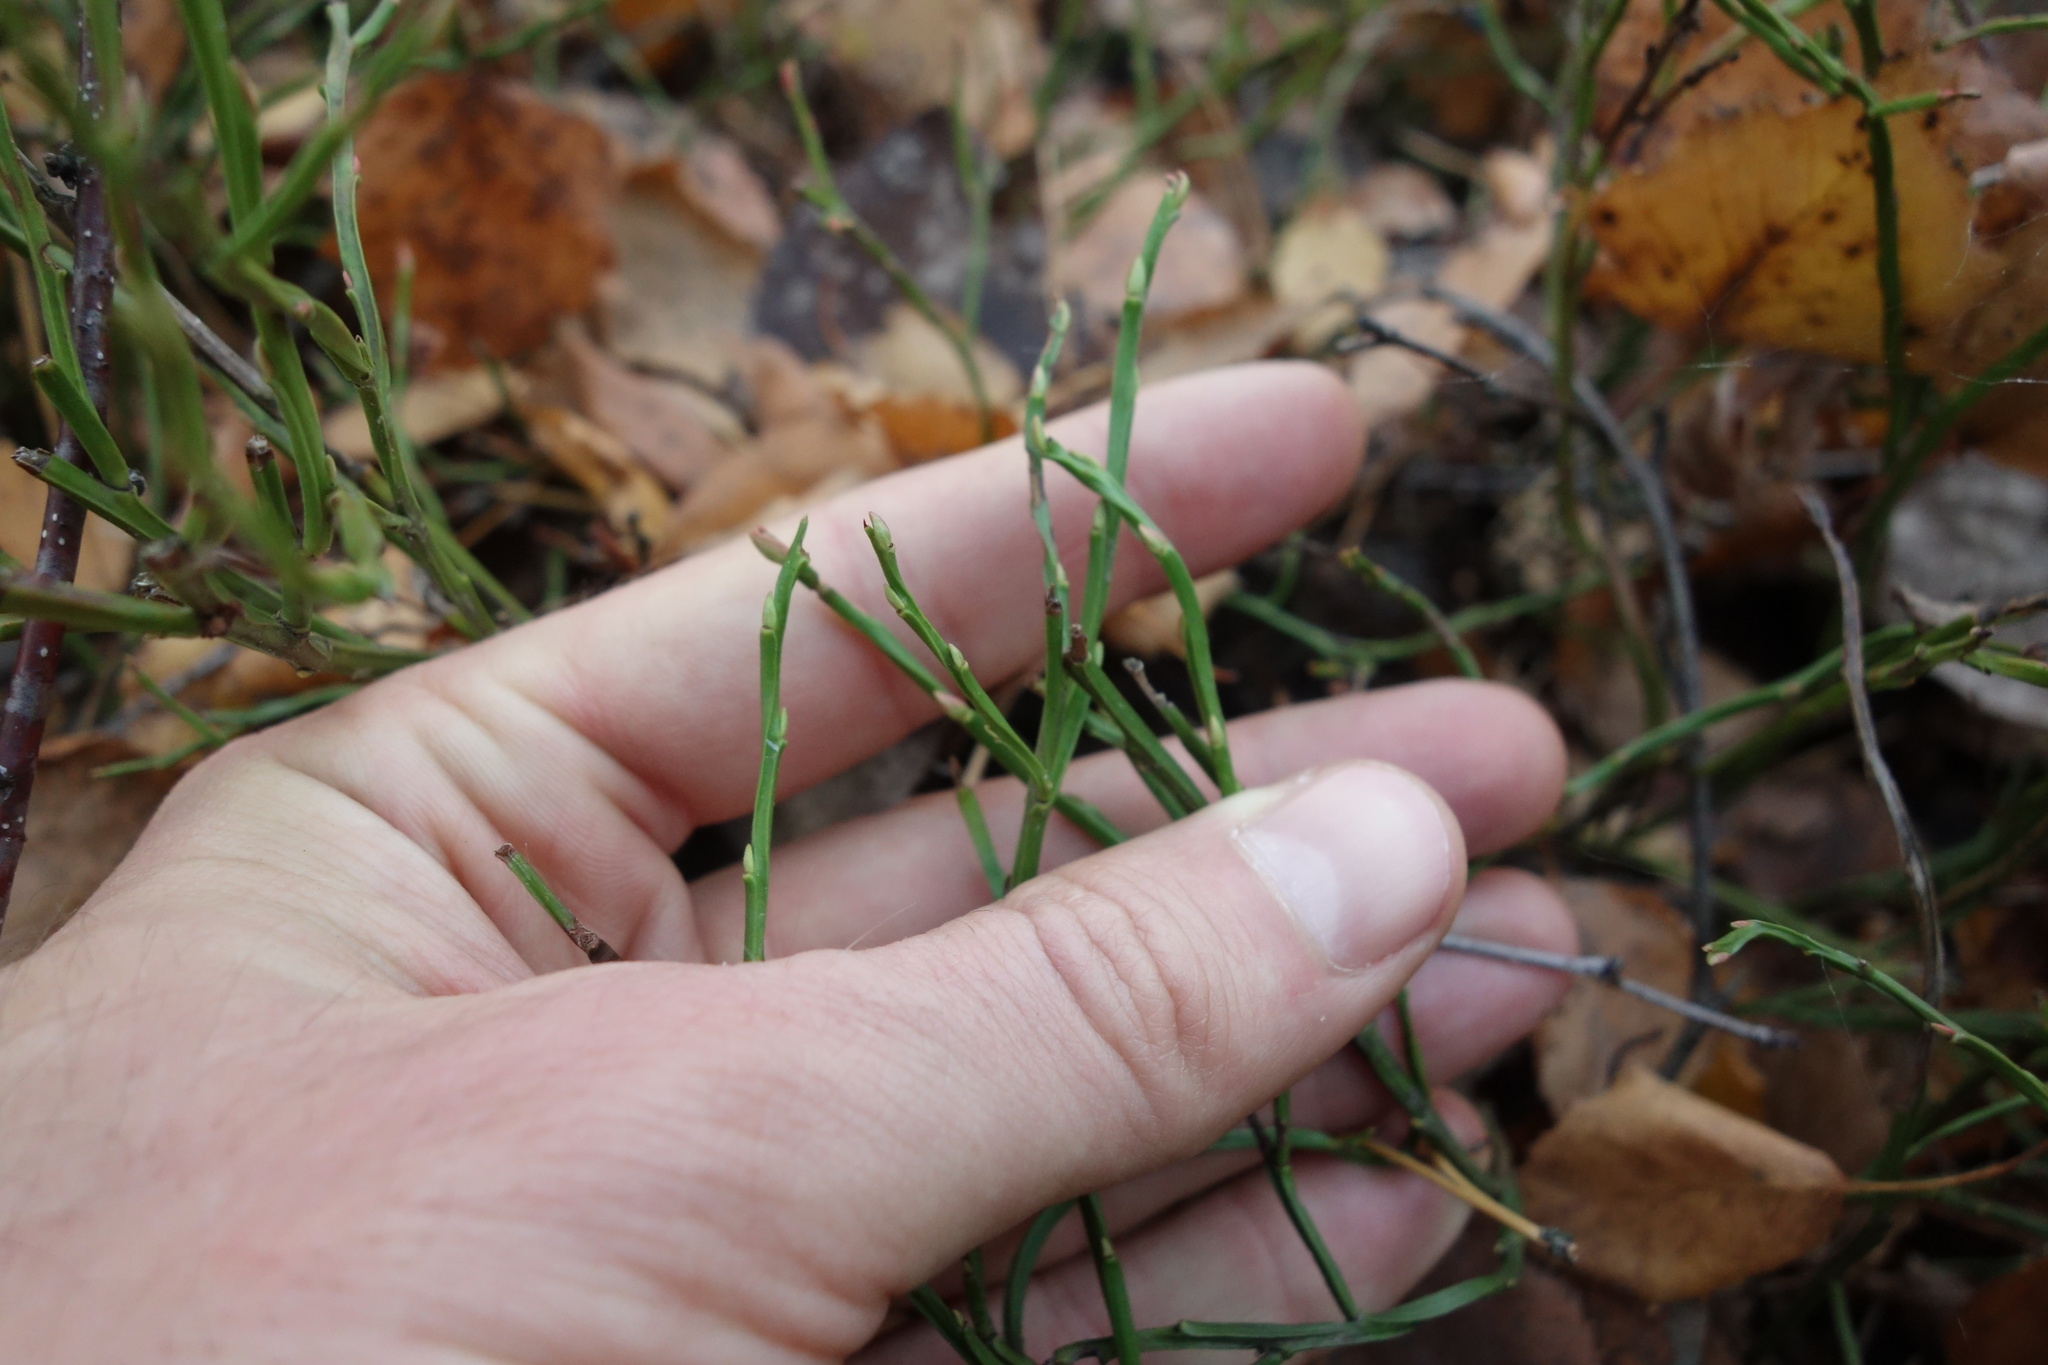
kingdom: Plantae
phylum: Tracheophyta
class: Magnoliopsida
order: Ericales
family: Ericaceae
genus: Vaccinium
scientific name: Vaccinium myrtillus
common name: Bilberry
